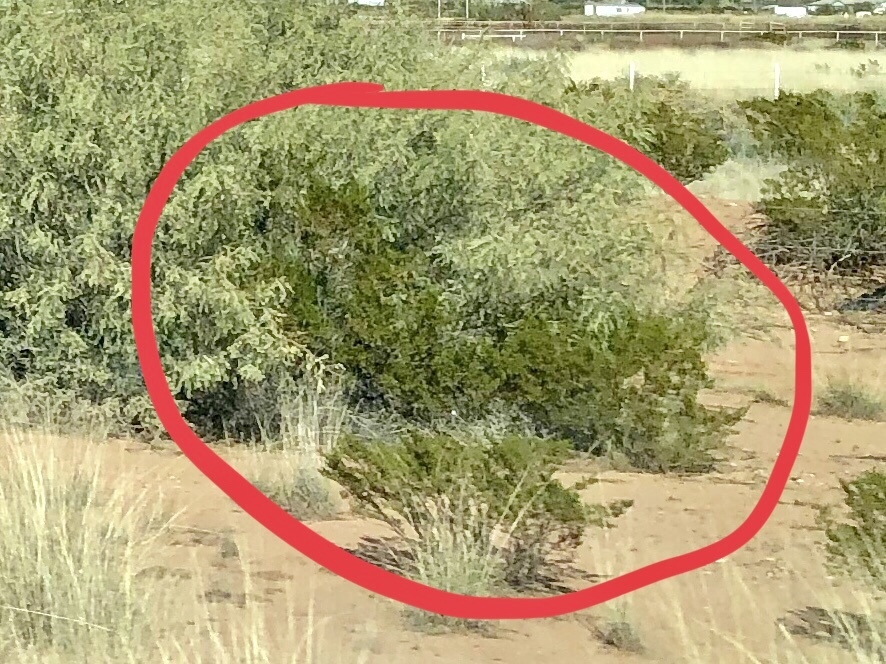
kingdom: Plantae
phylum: Tracheophyta
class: Magnoliopsida
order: Zygophyllales
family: Zygophyllaceae
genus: Larrea
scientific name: Larrea tridentata
